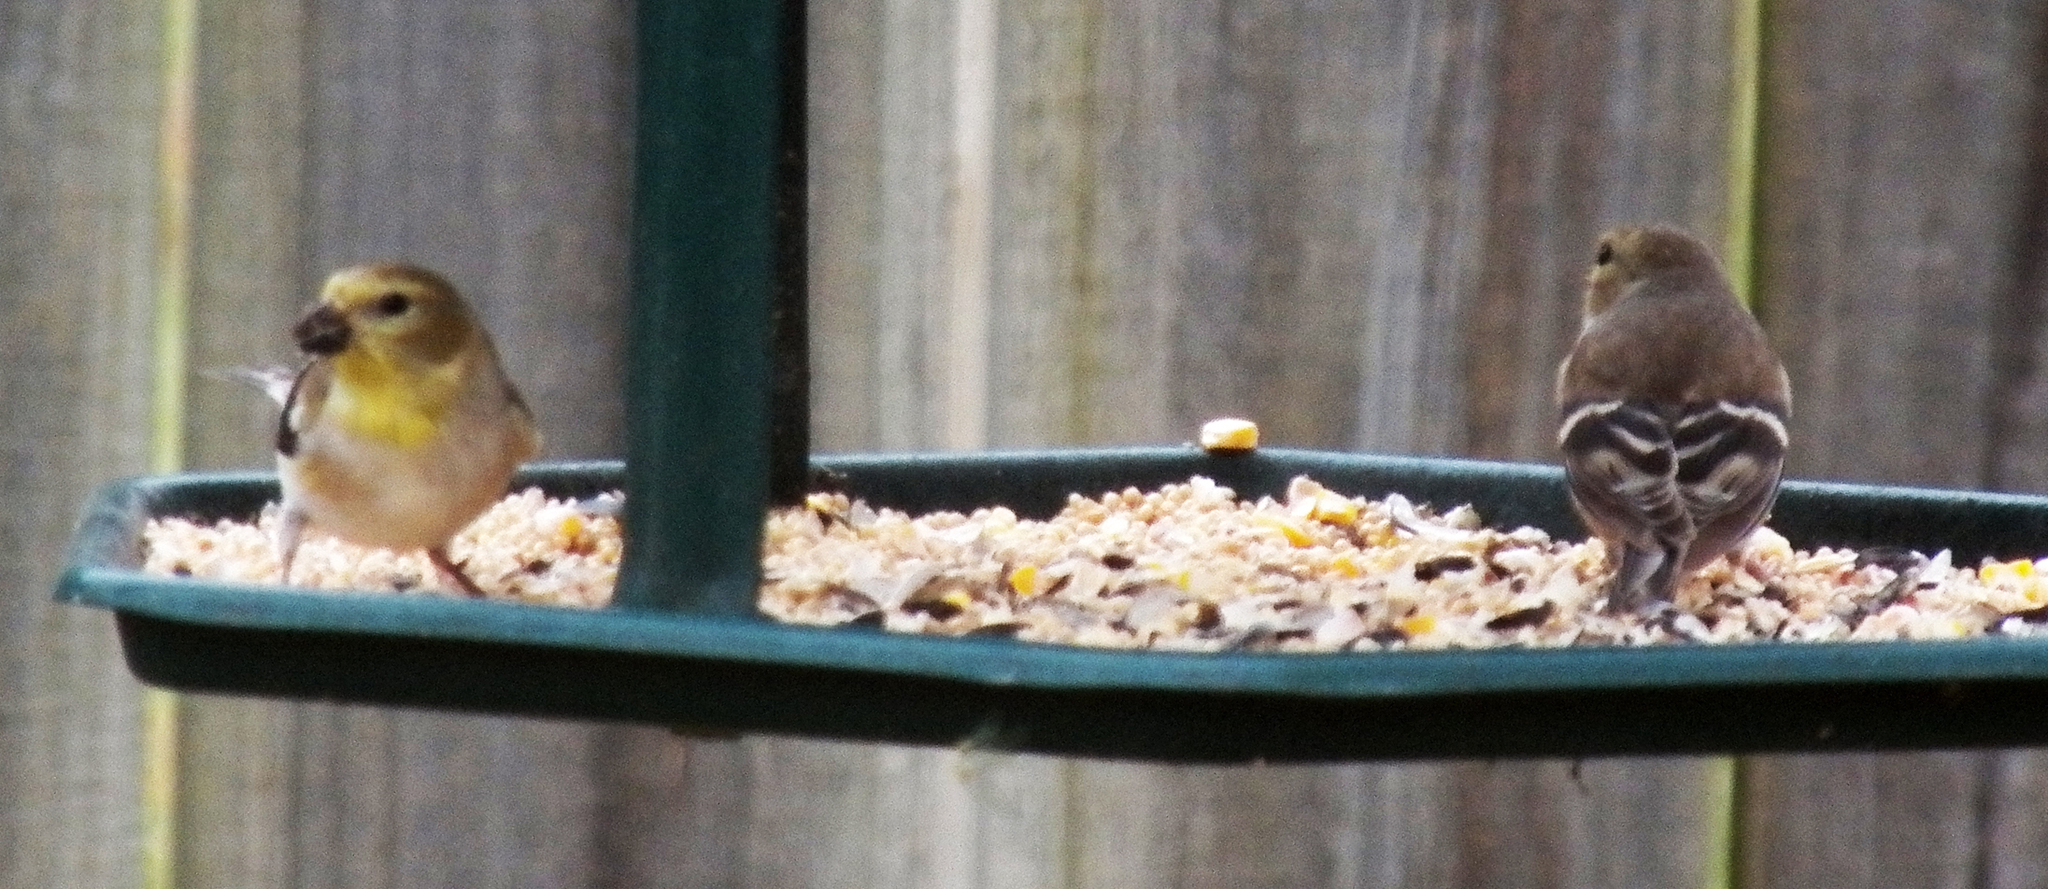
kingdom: Animalia
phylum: Chordata
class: Aves
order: Passeriformes
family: Fringillidae
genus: Spinus
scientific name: Spinus tristis
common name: American goldfinch
